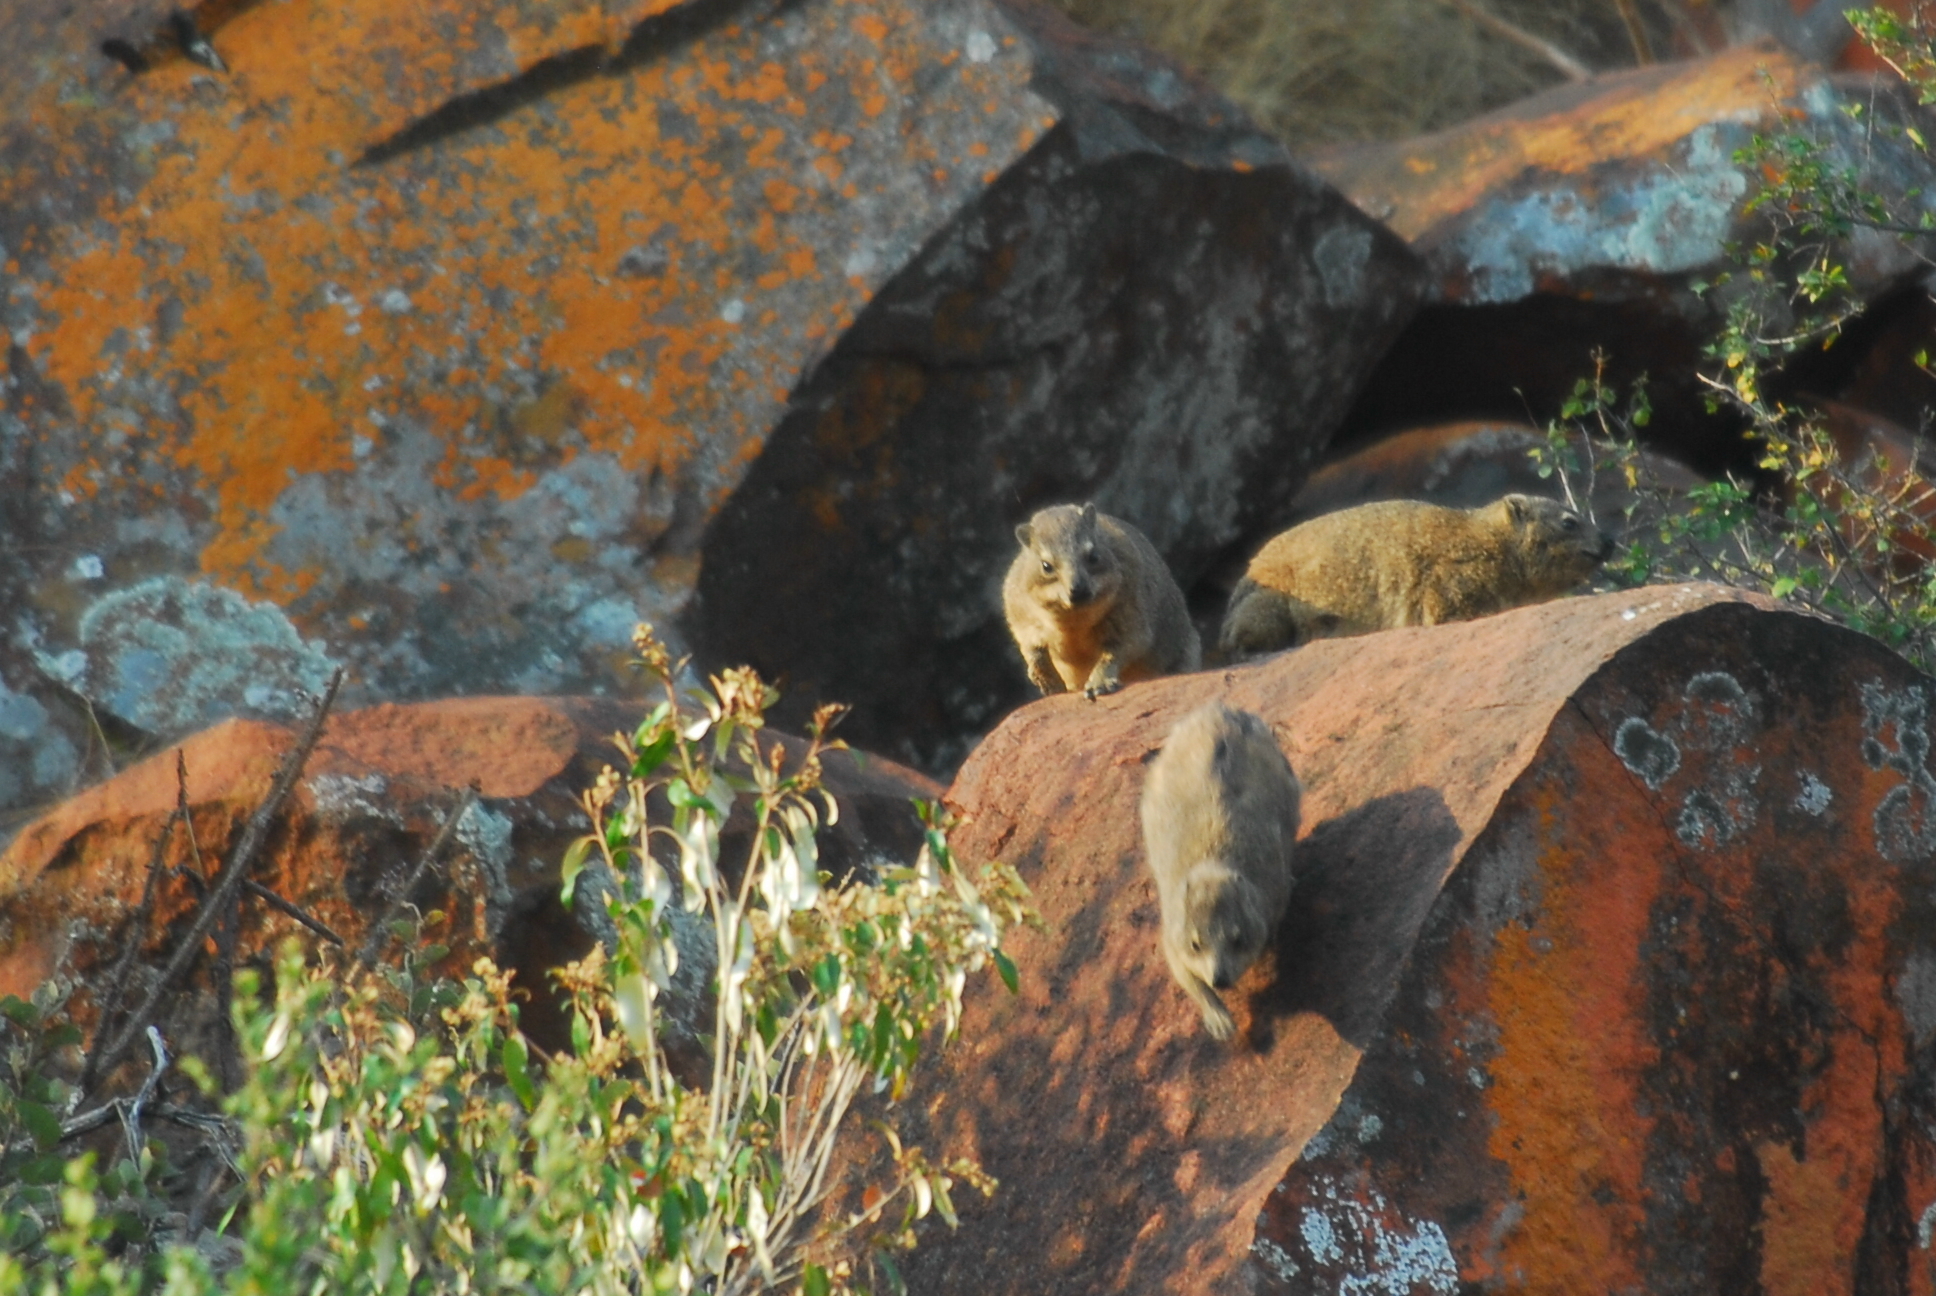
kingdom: Animalia
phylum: Chordata
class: Mammalia
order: Hyracoidea
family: Procaviidae
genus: Procavia
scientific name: Procavia capensis
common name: Rock hyrax
